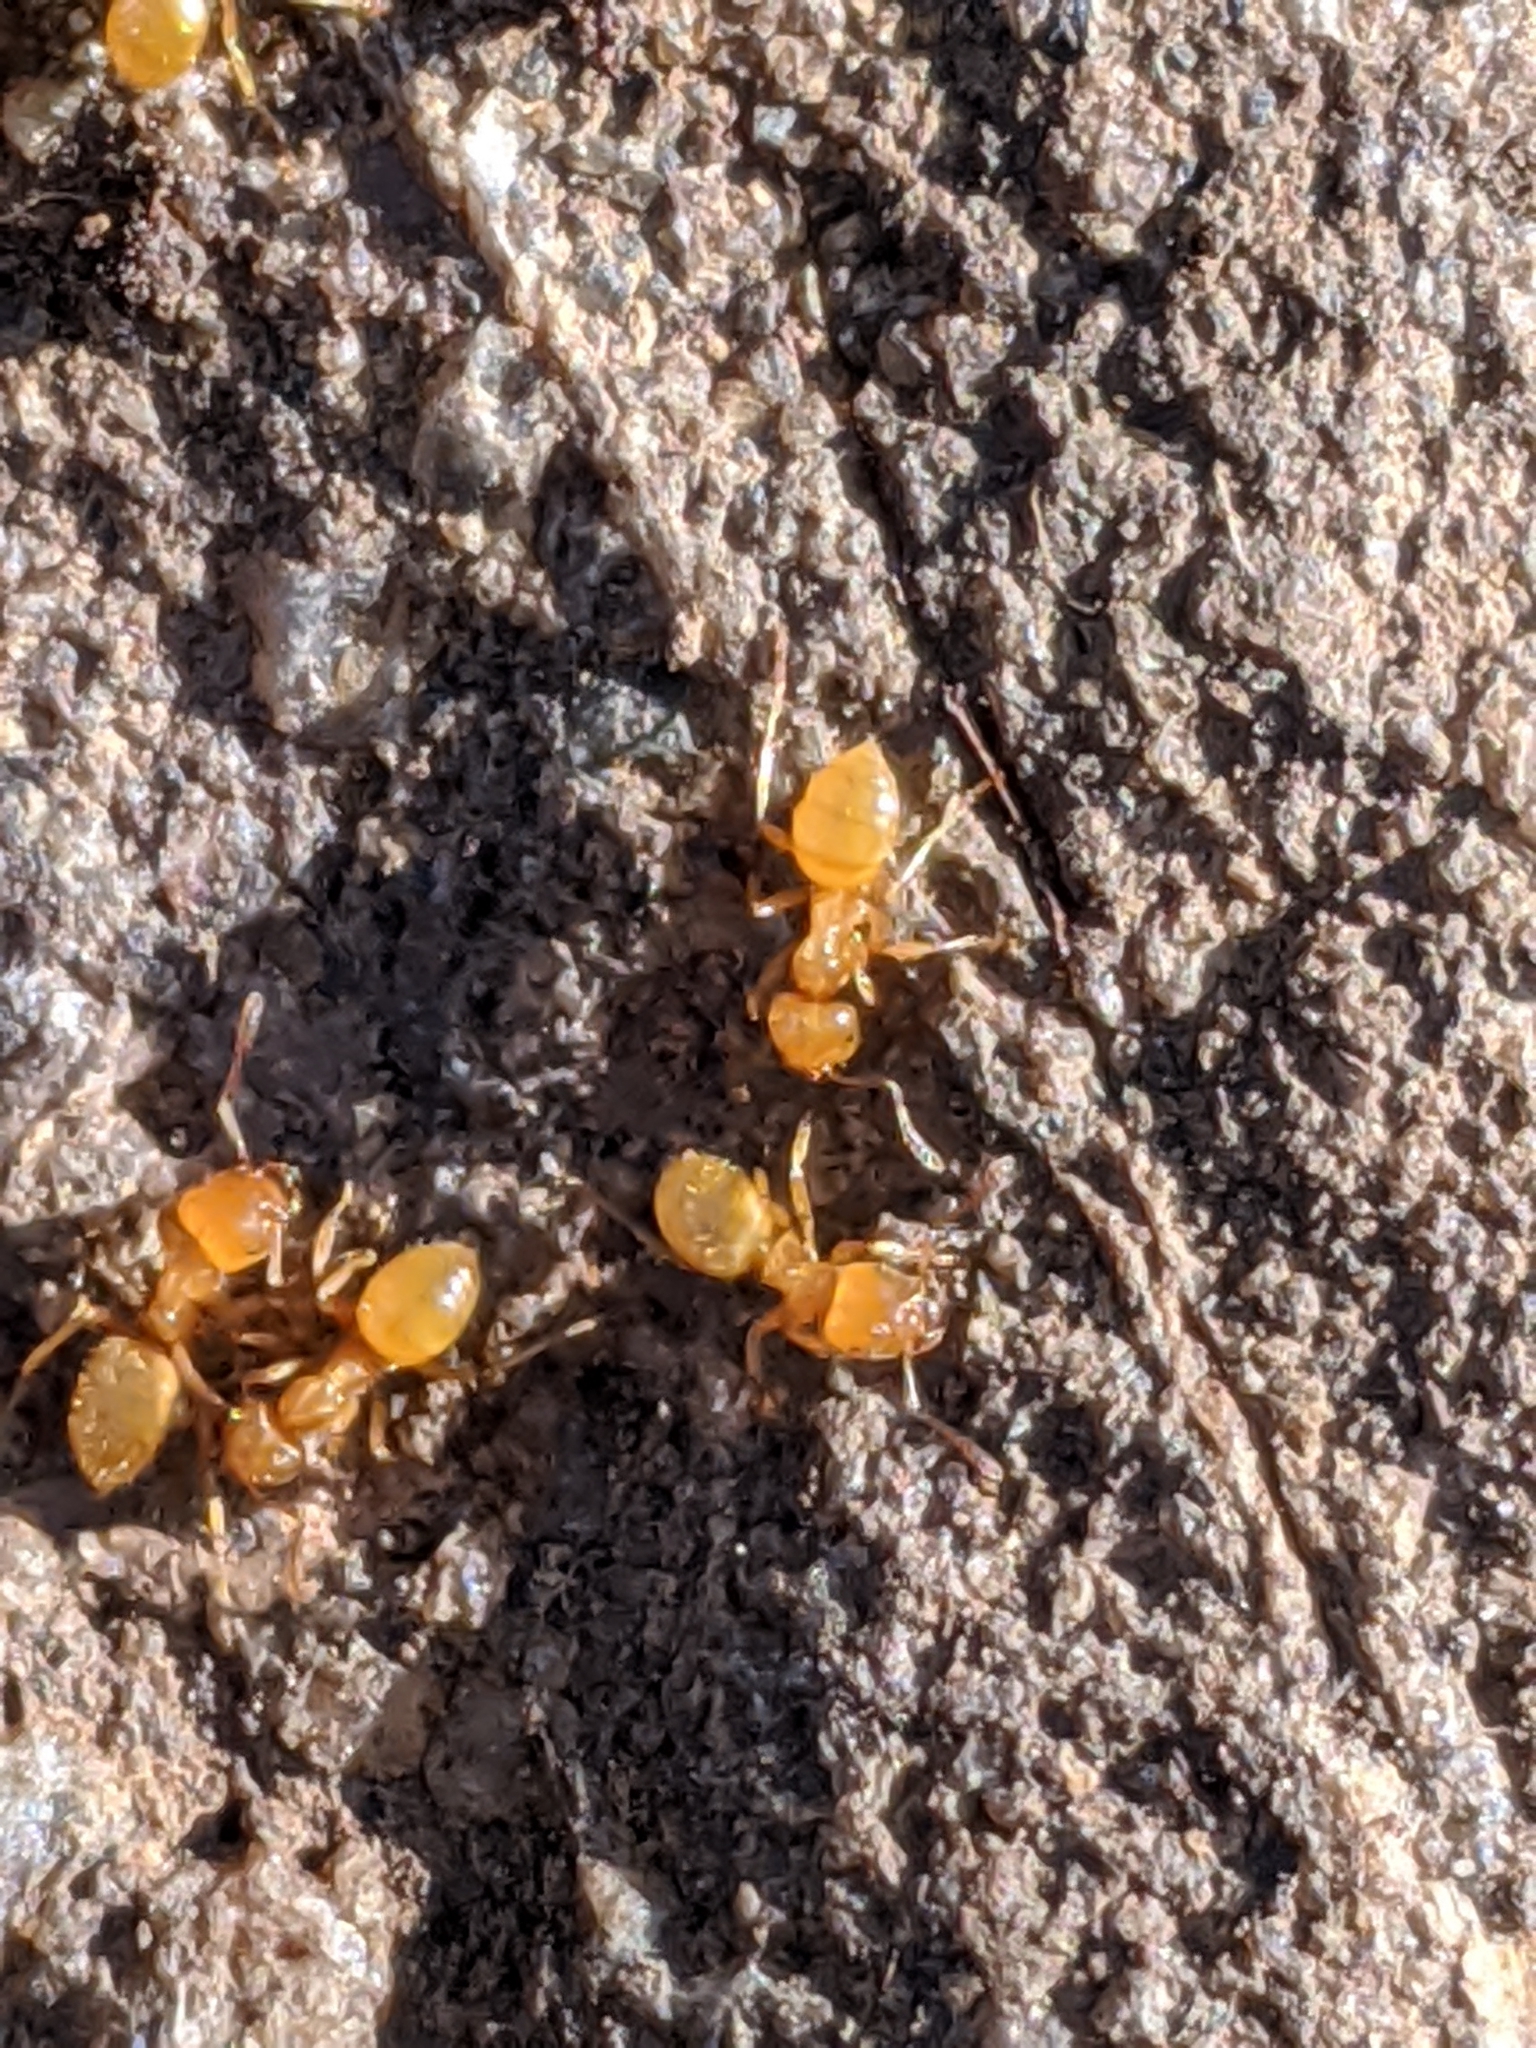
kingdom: Animalia
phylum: Arthropoda
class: Insecta
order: Hymenoptera
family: Formicidae
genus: Lasius
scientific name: Lasius
